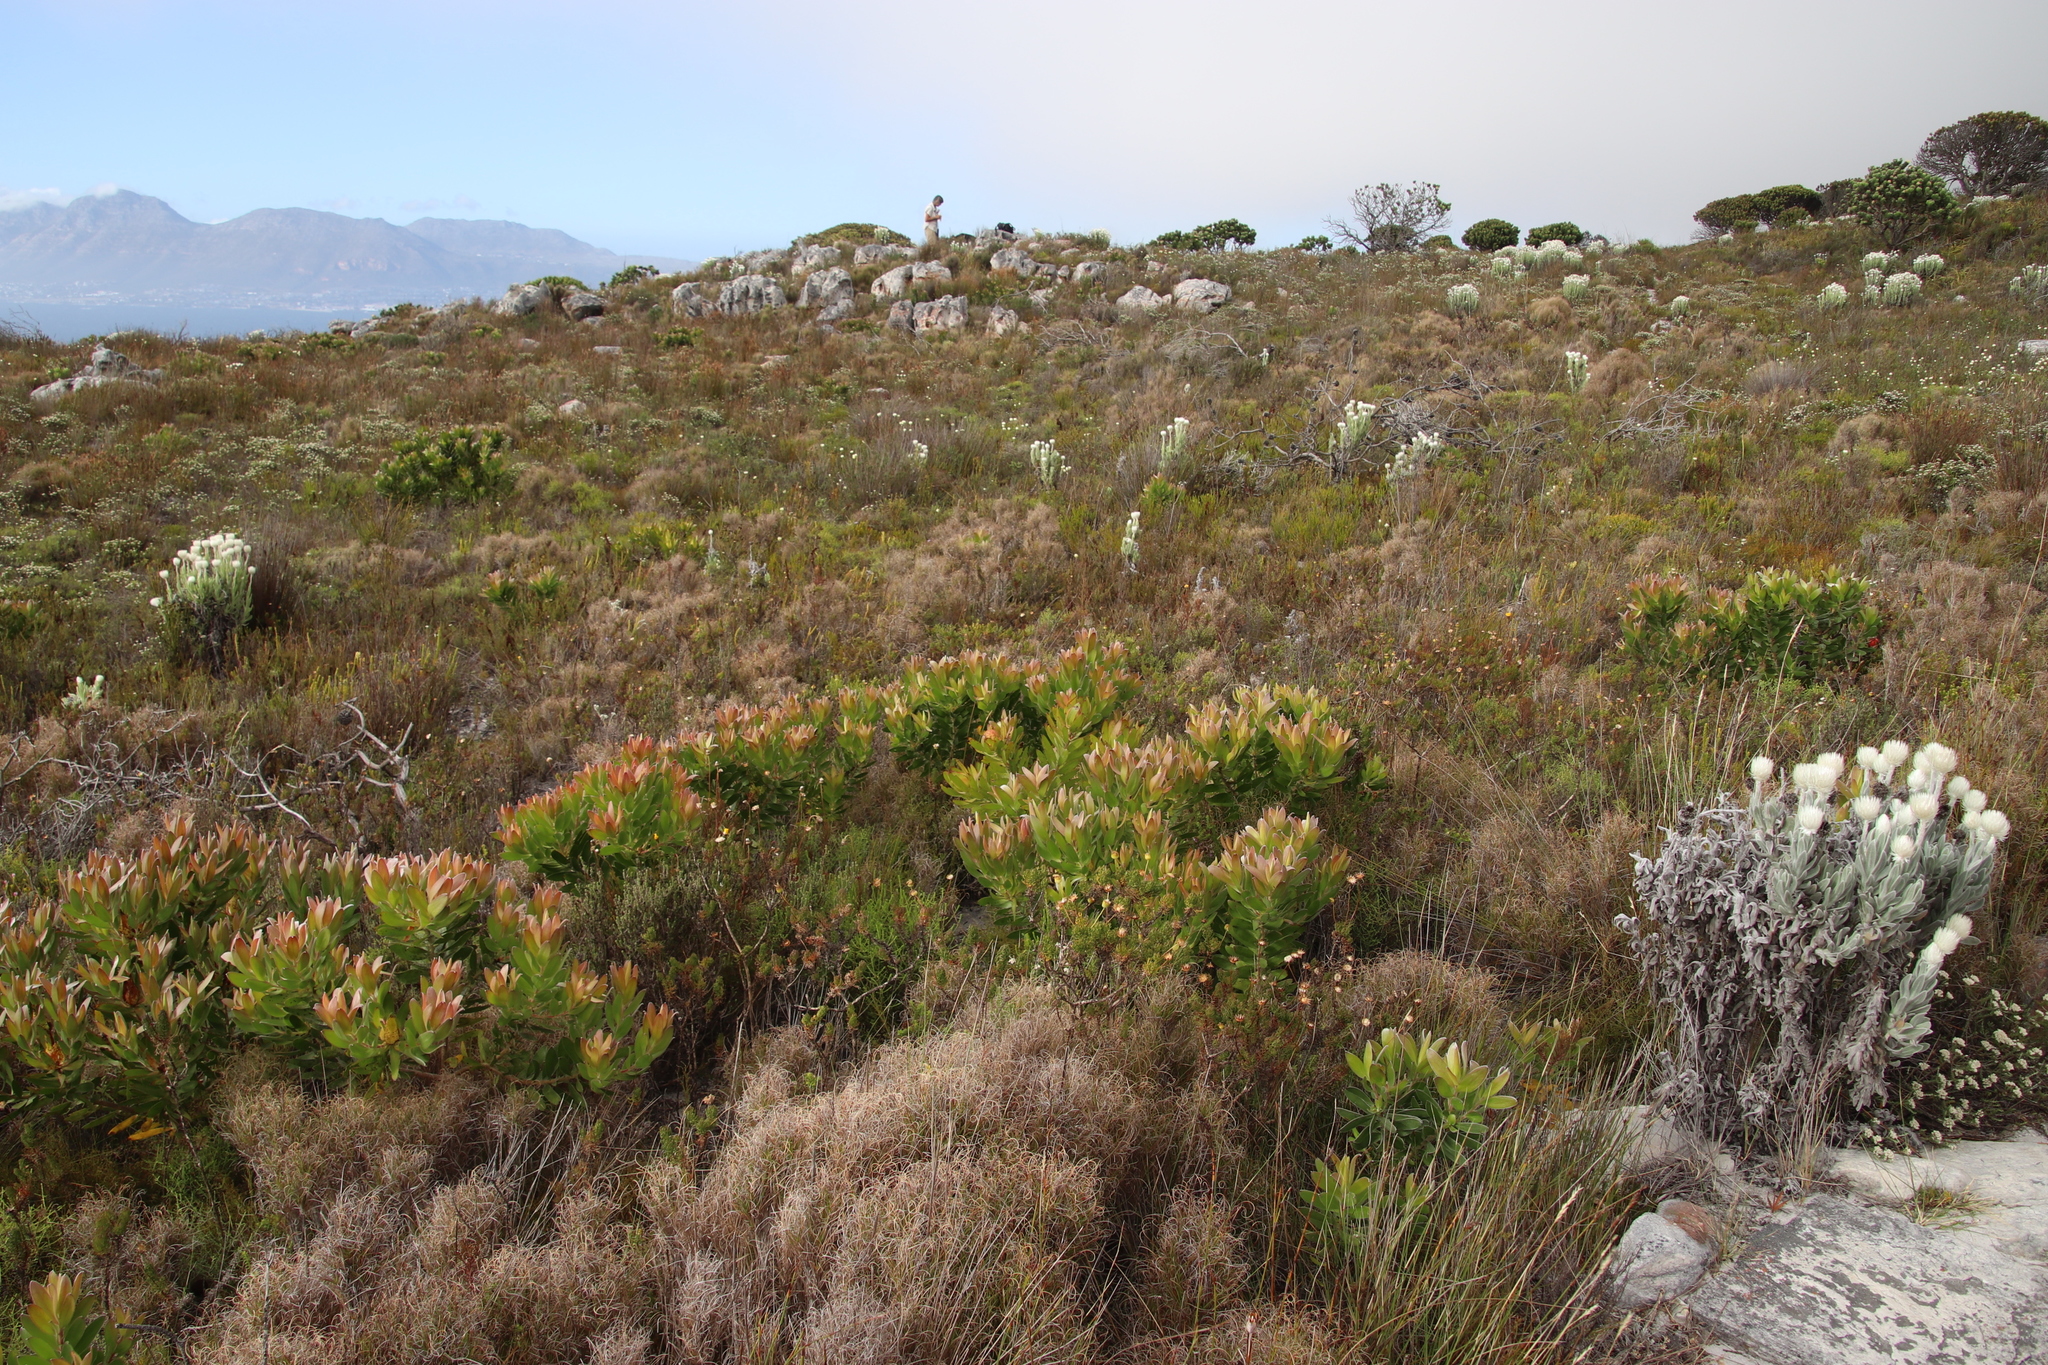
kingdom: Plantae
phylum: Tracheophyta
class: Magnoliopsida
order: Proteales
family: Proteaceae
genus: Leucadendron
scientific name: Leucadendron laureolum
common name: Golden sunshinebush
